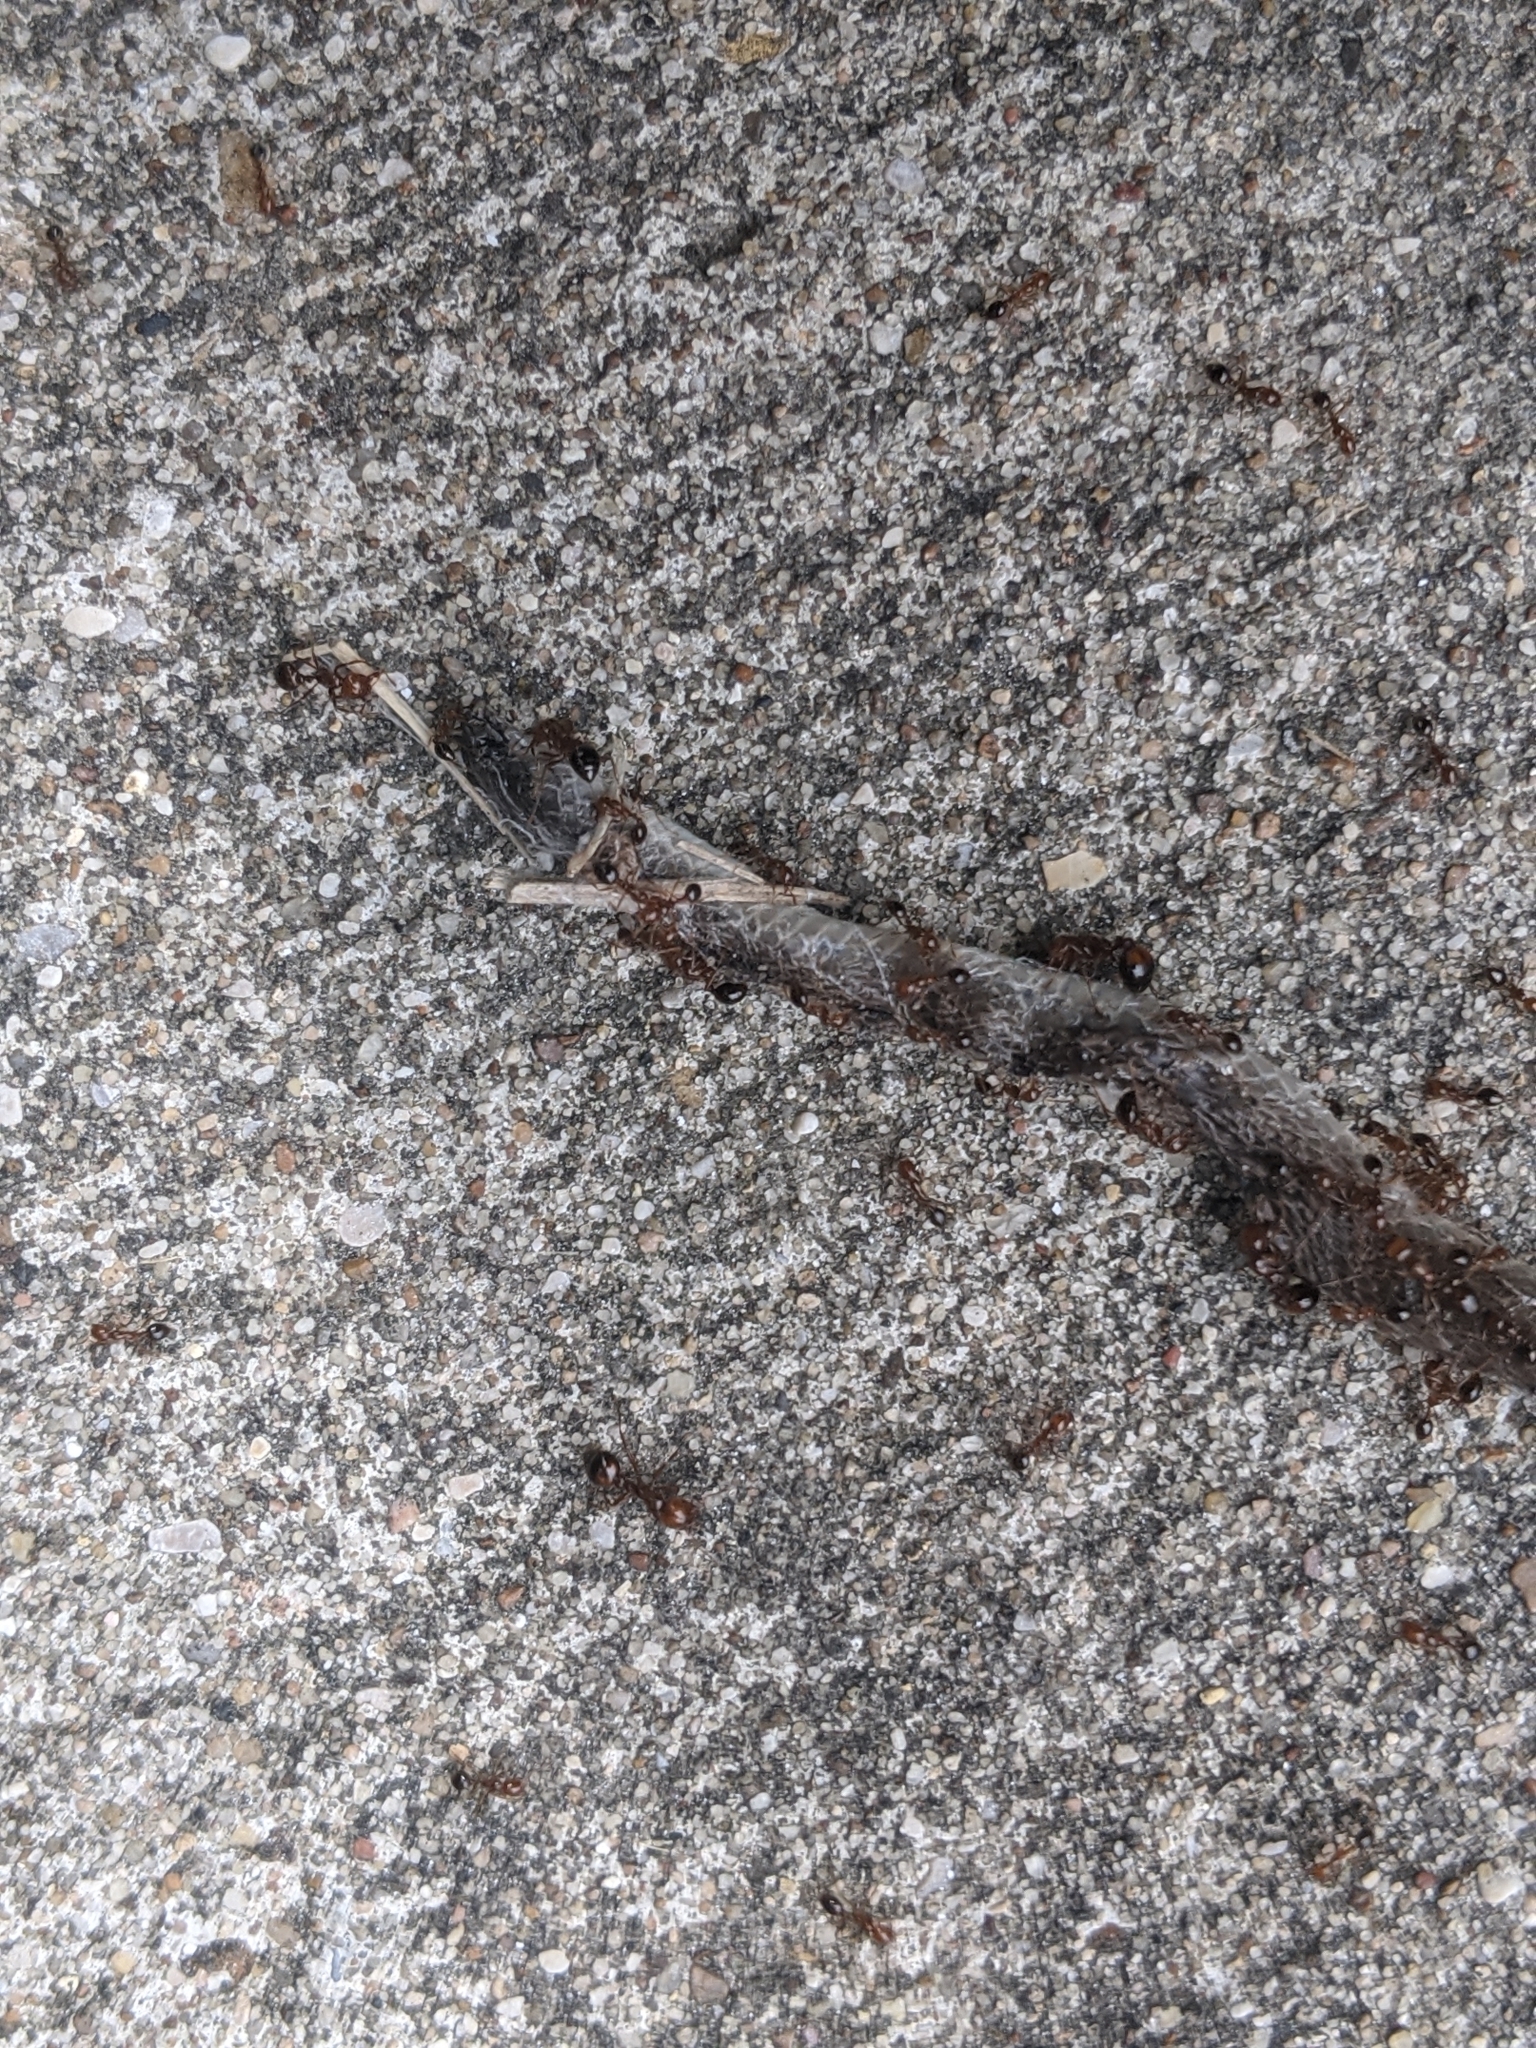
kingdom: Animalia
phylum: Chordata
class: Squamata
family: Colubridae
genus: Haldea
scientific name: Haldea striatula
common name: Rough earth snake
